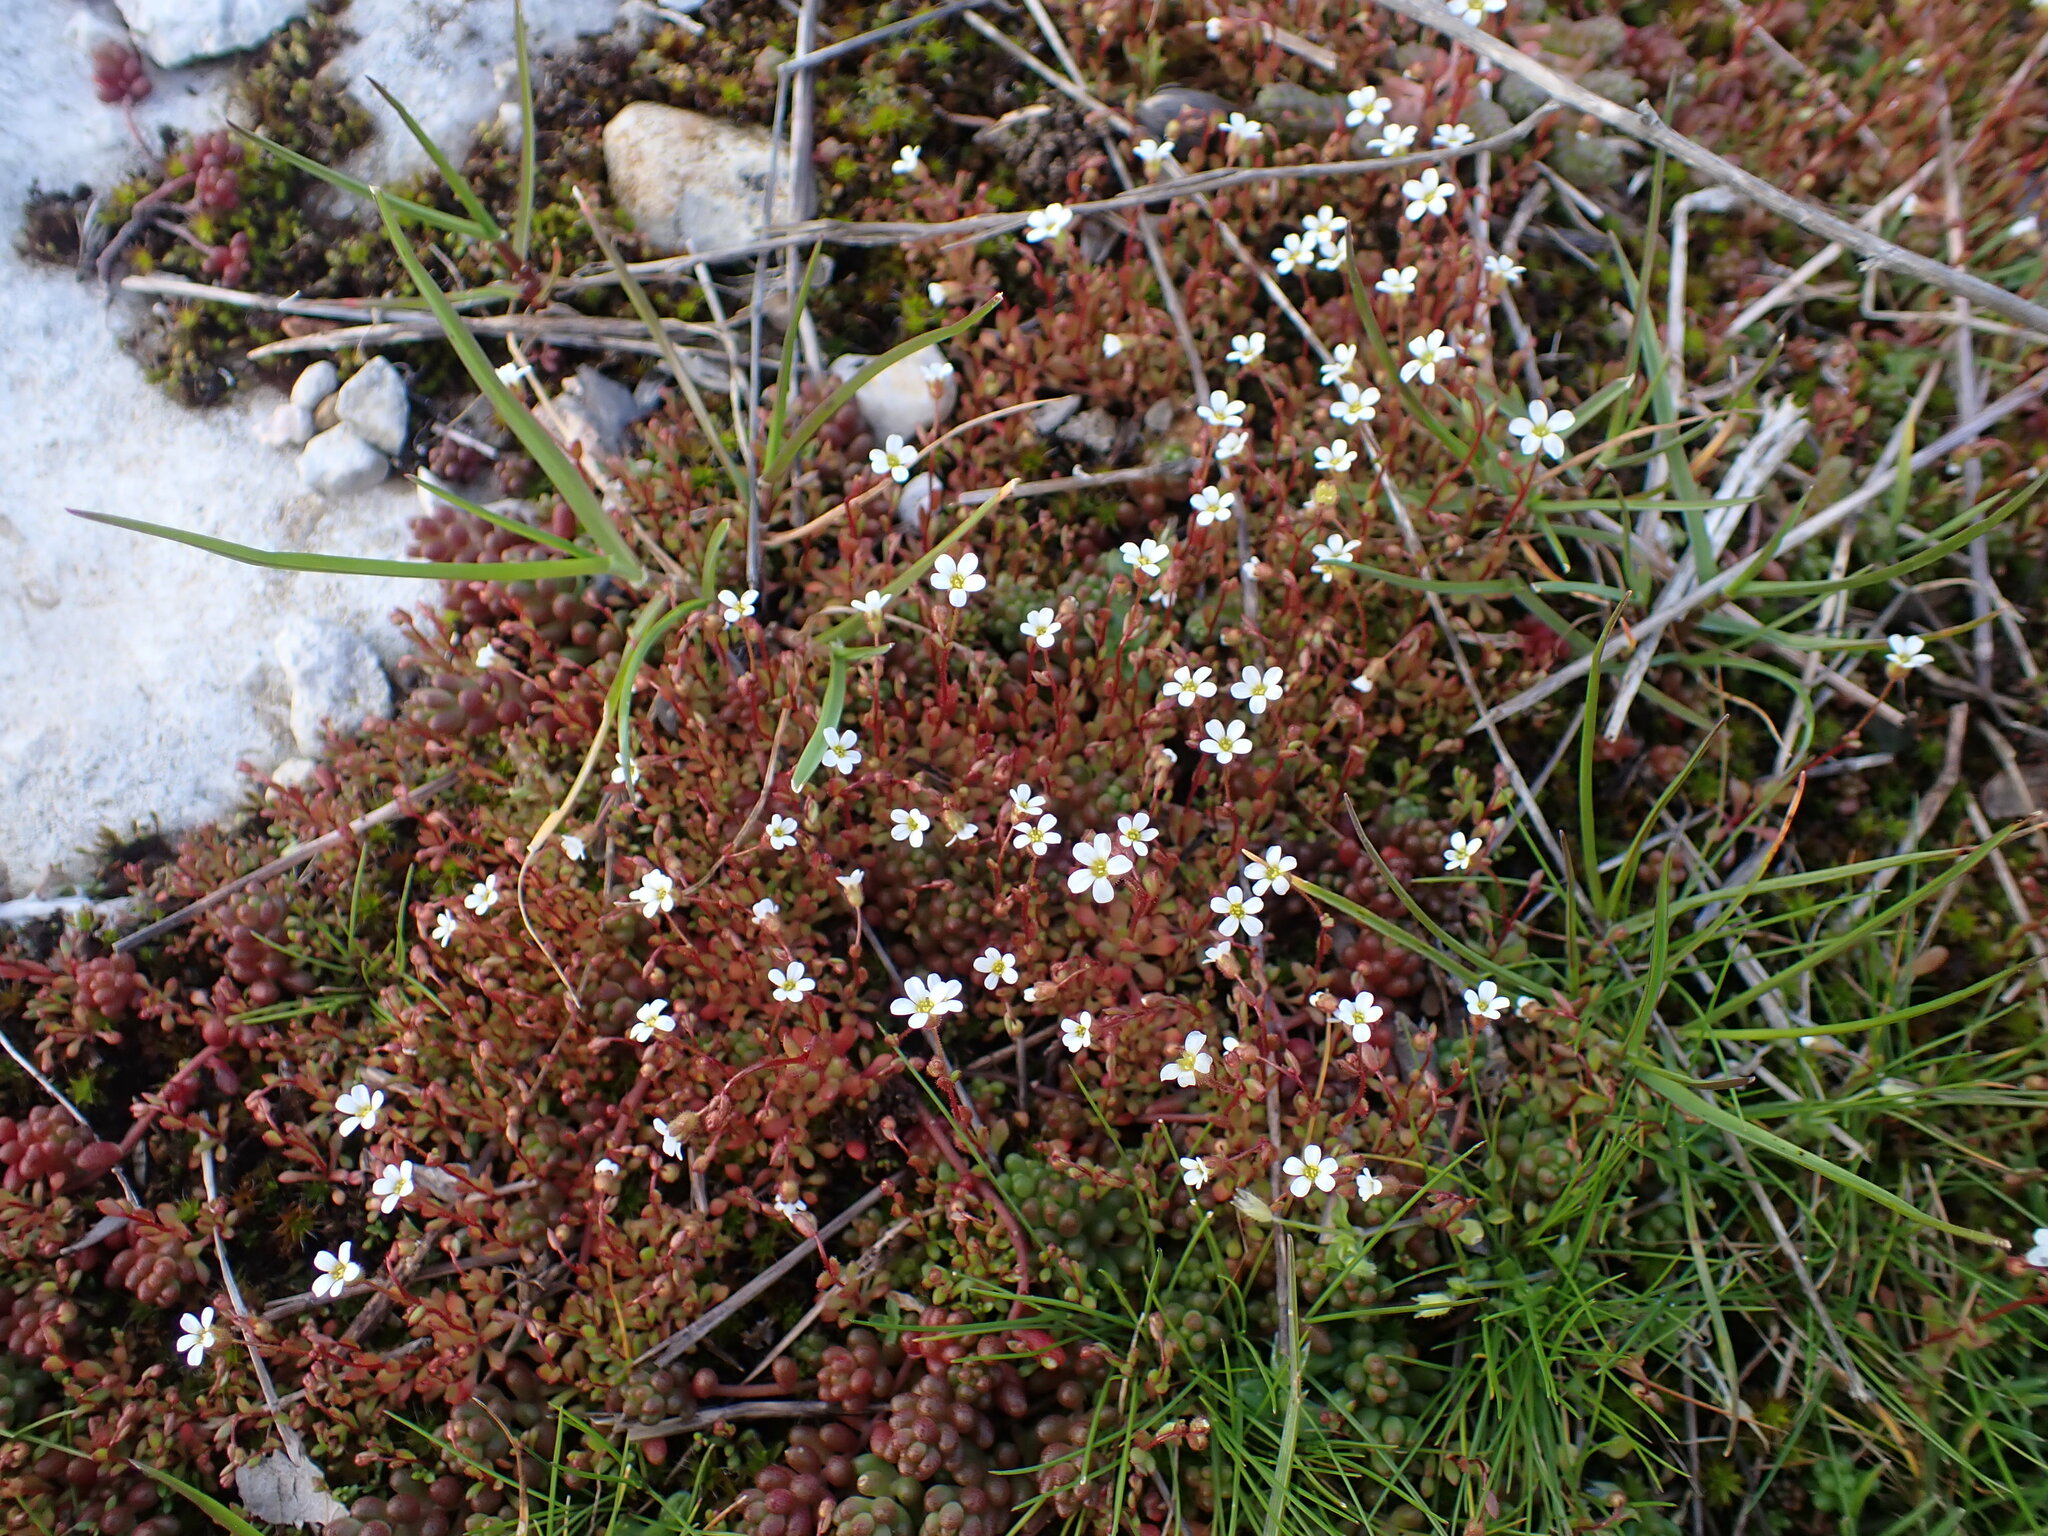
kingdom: Plantae
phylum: Tracheophyta
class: Magnoliopsida
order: Saxifragales
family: Saxifragaceae
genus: Saxifraga
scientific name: Saxifraga tridactylites
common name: Rue-leaved saxifrage
